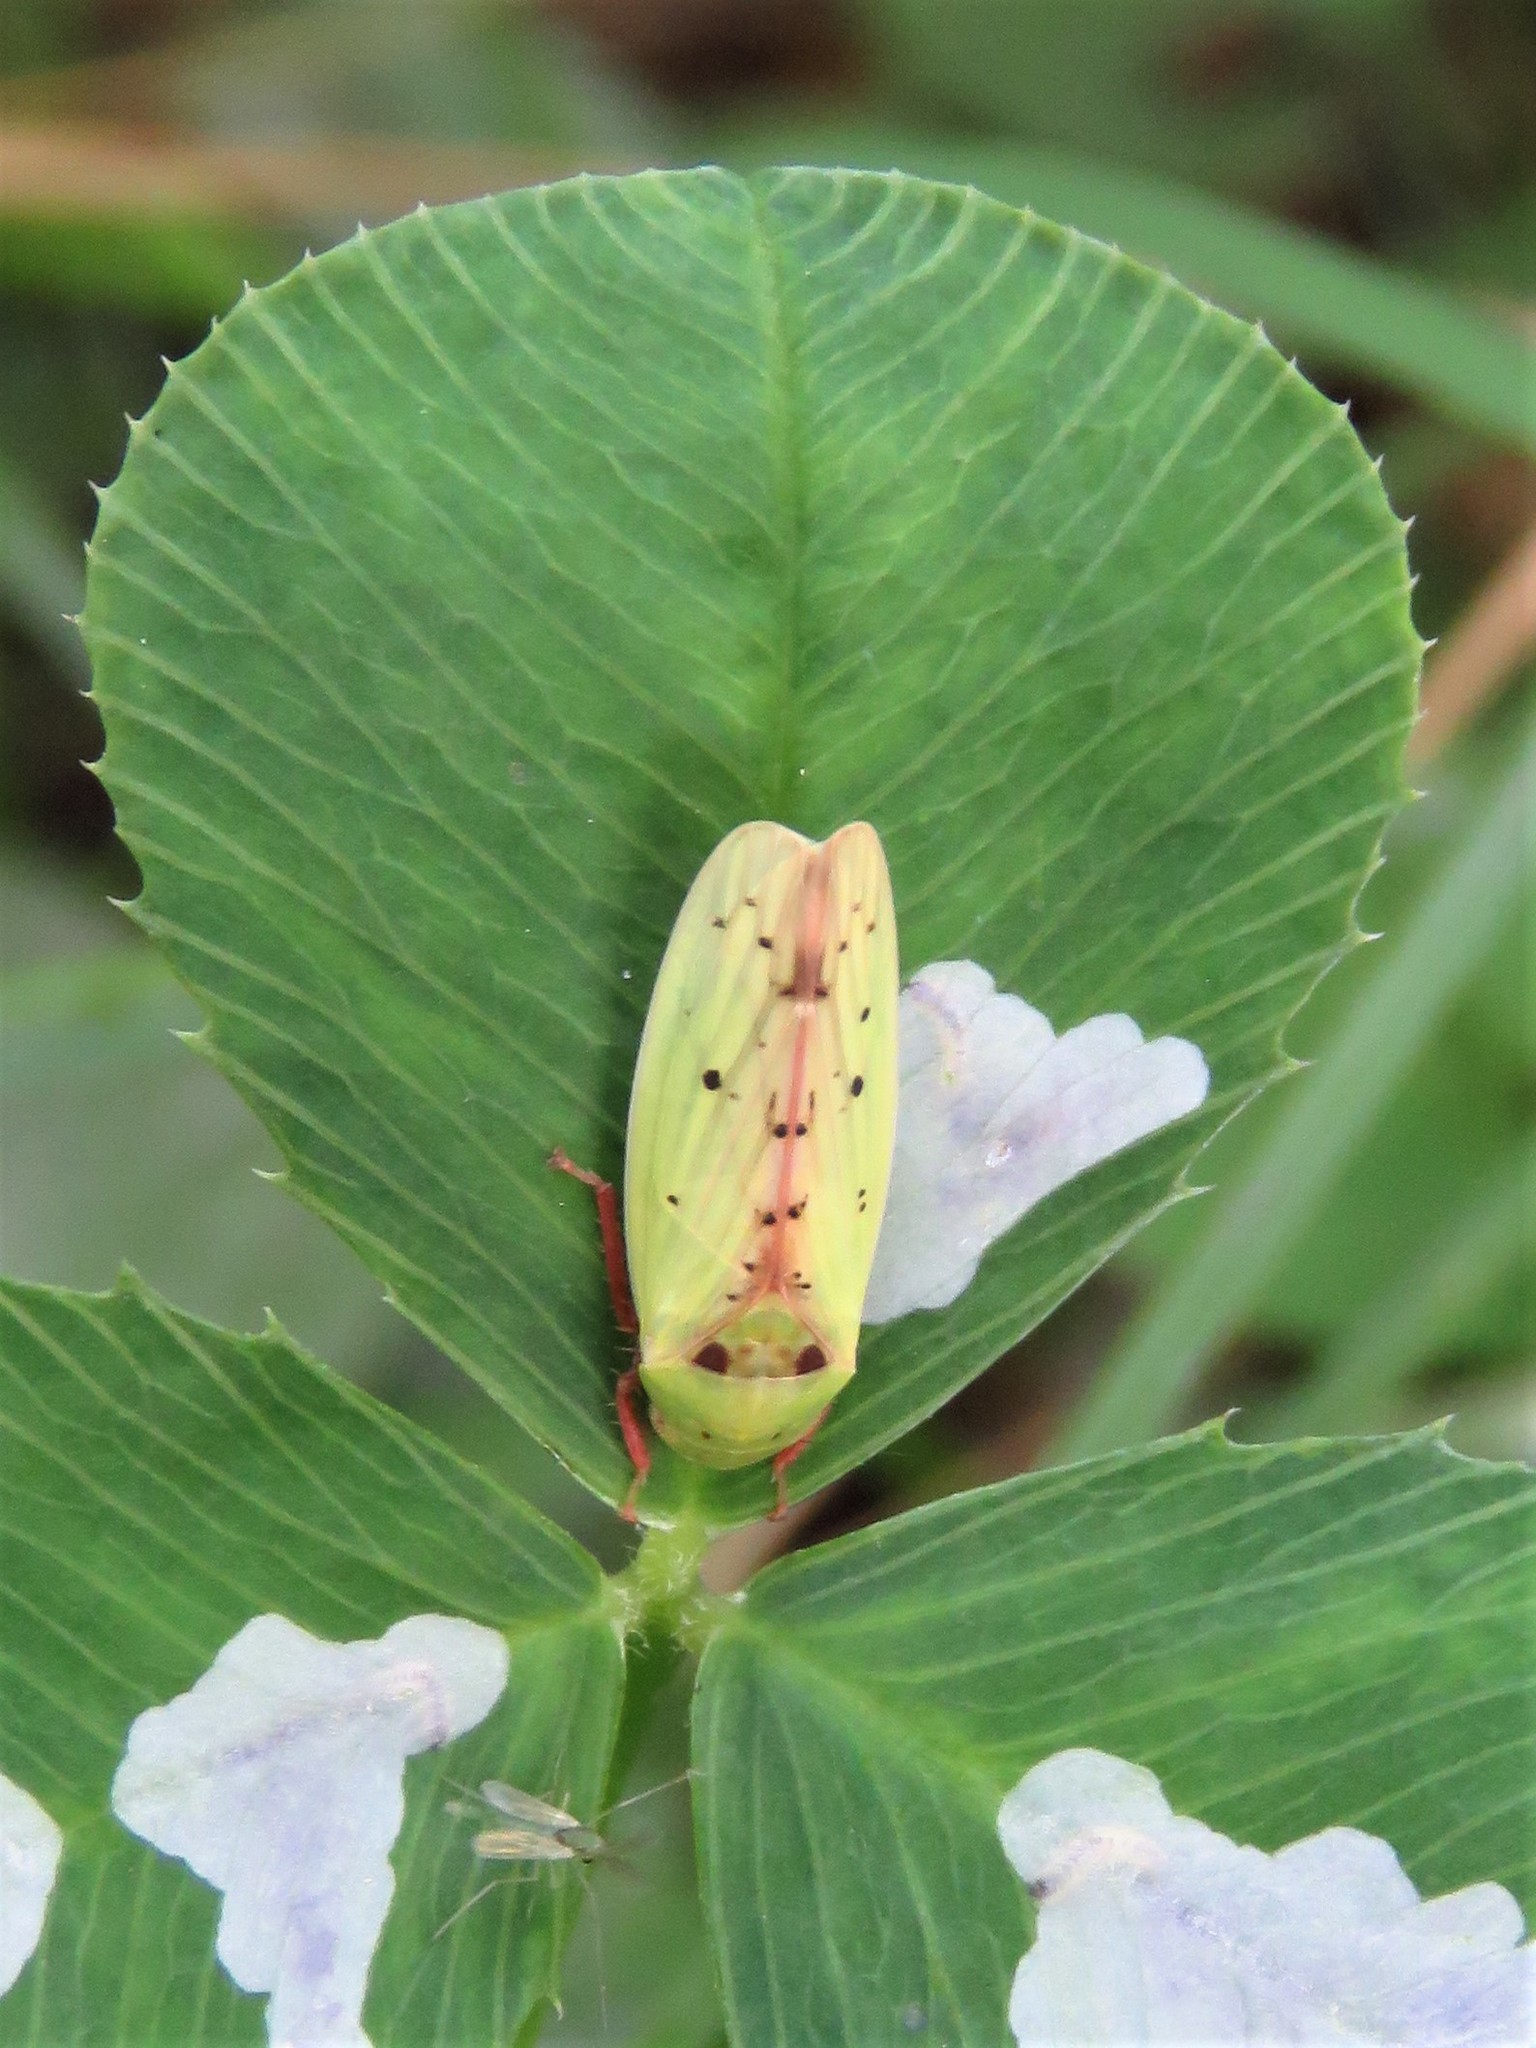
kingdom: Animalia
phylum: Arthropoda
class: Insecta
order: Hemiptera
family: Cicadellidae
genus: Ponana
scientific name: Ponana
